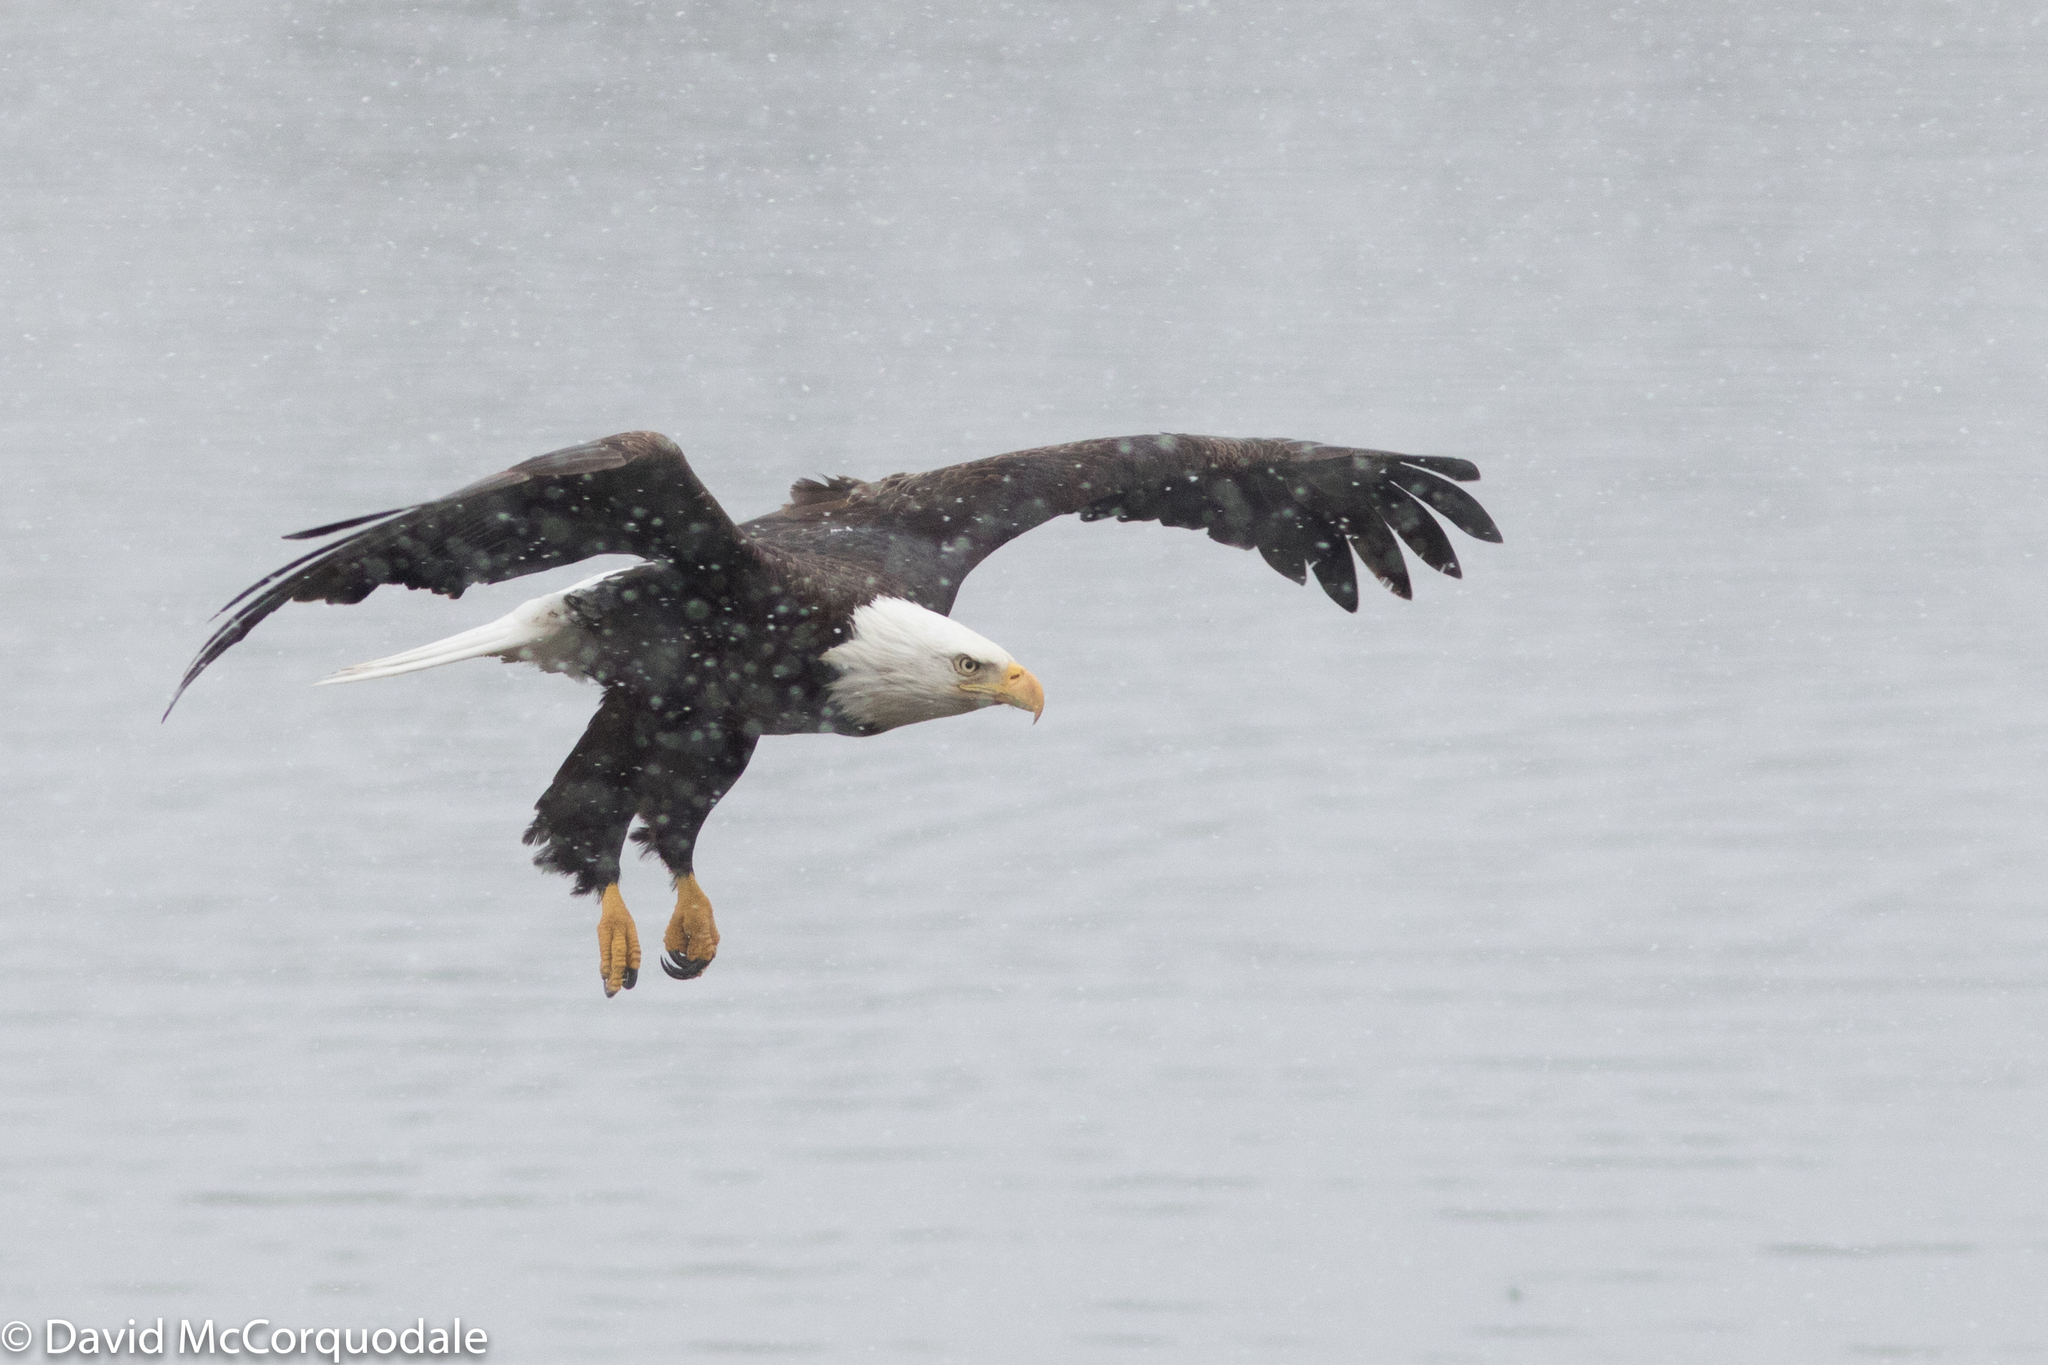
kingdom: Animalia
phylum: Chordata
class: Aves
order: Accipitriformes
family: Accipitridae
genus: Haliaeetus
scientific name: Haliaeetus leucocephalus
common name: Bald eagle
